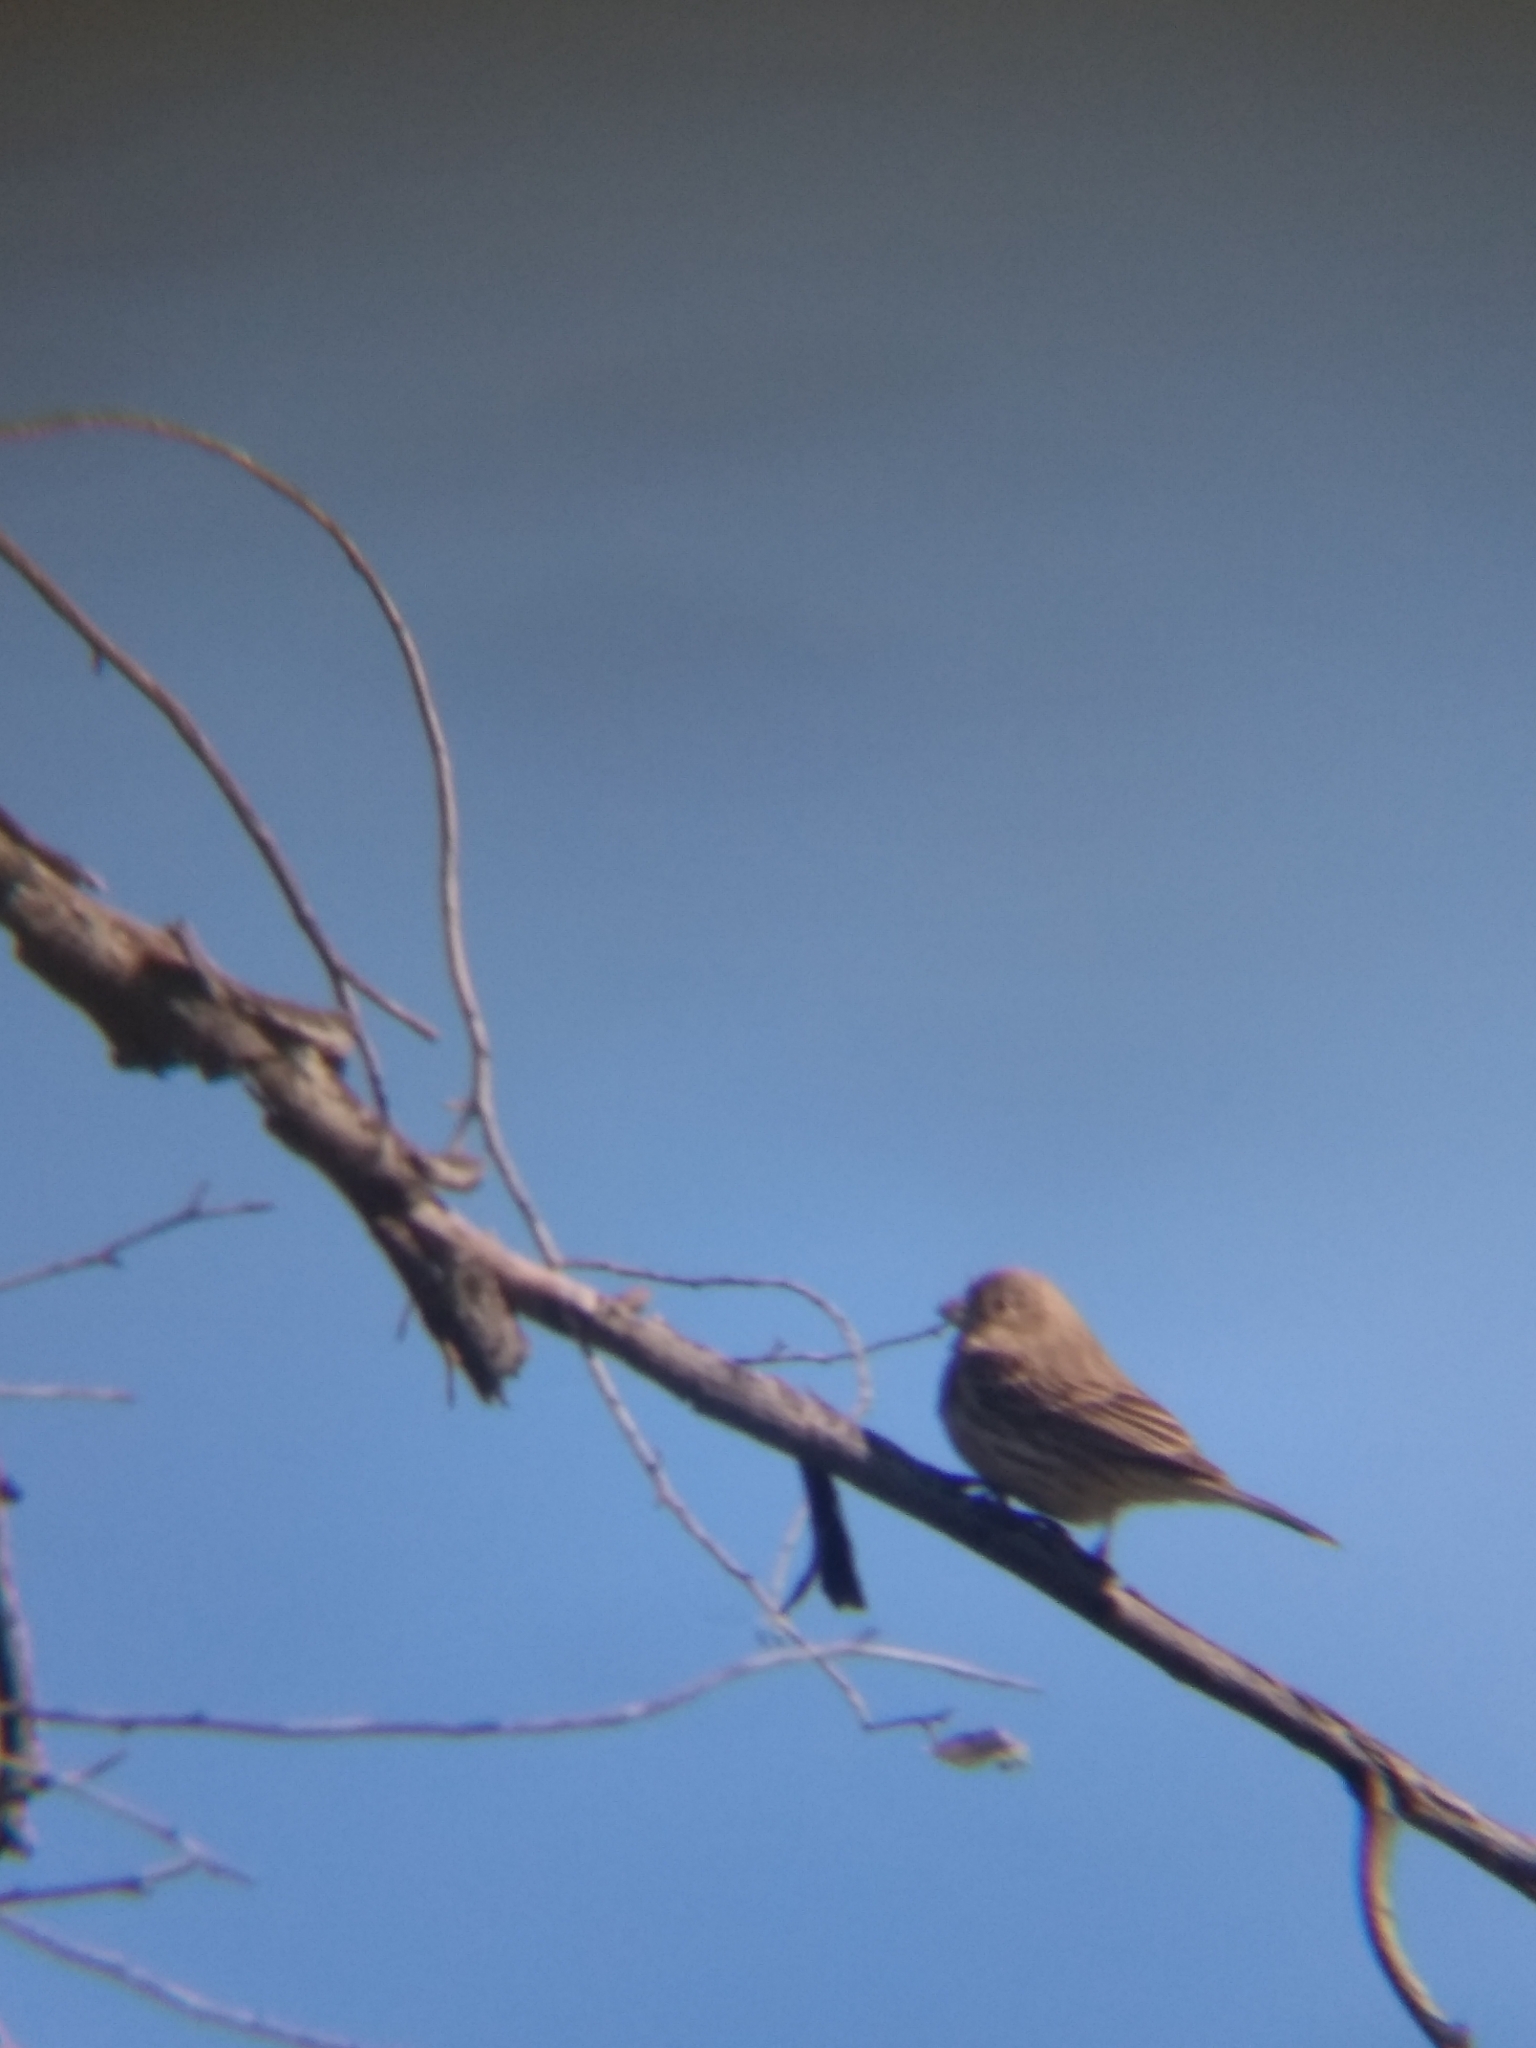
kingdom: Animalia
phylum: Chordata
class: Aves
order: Passeriformes
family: Fringillidae
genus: Haemorhous
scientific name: Haemorhous mexicanus
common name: House finch
